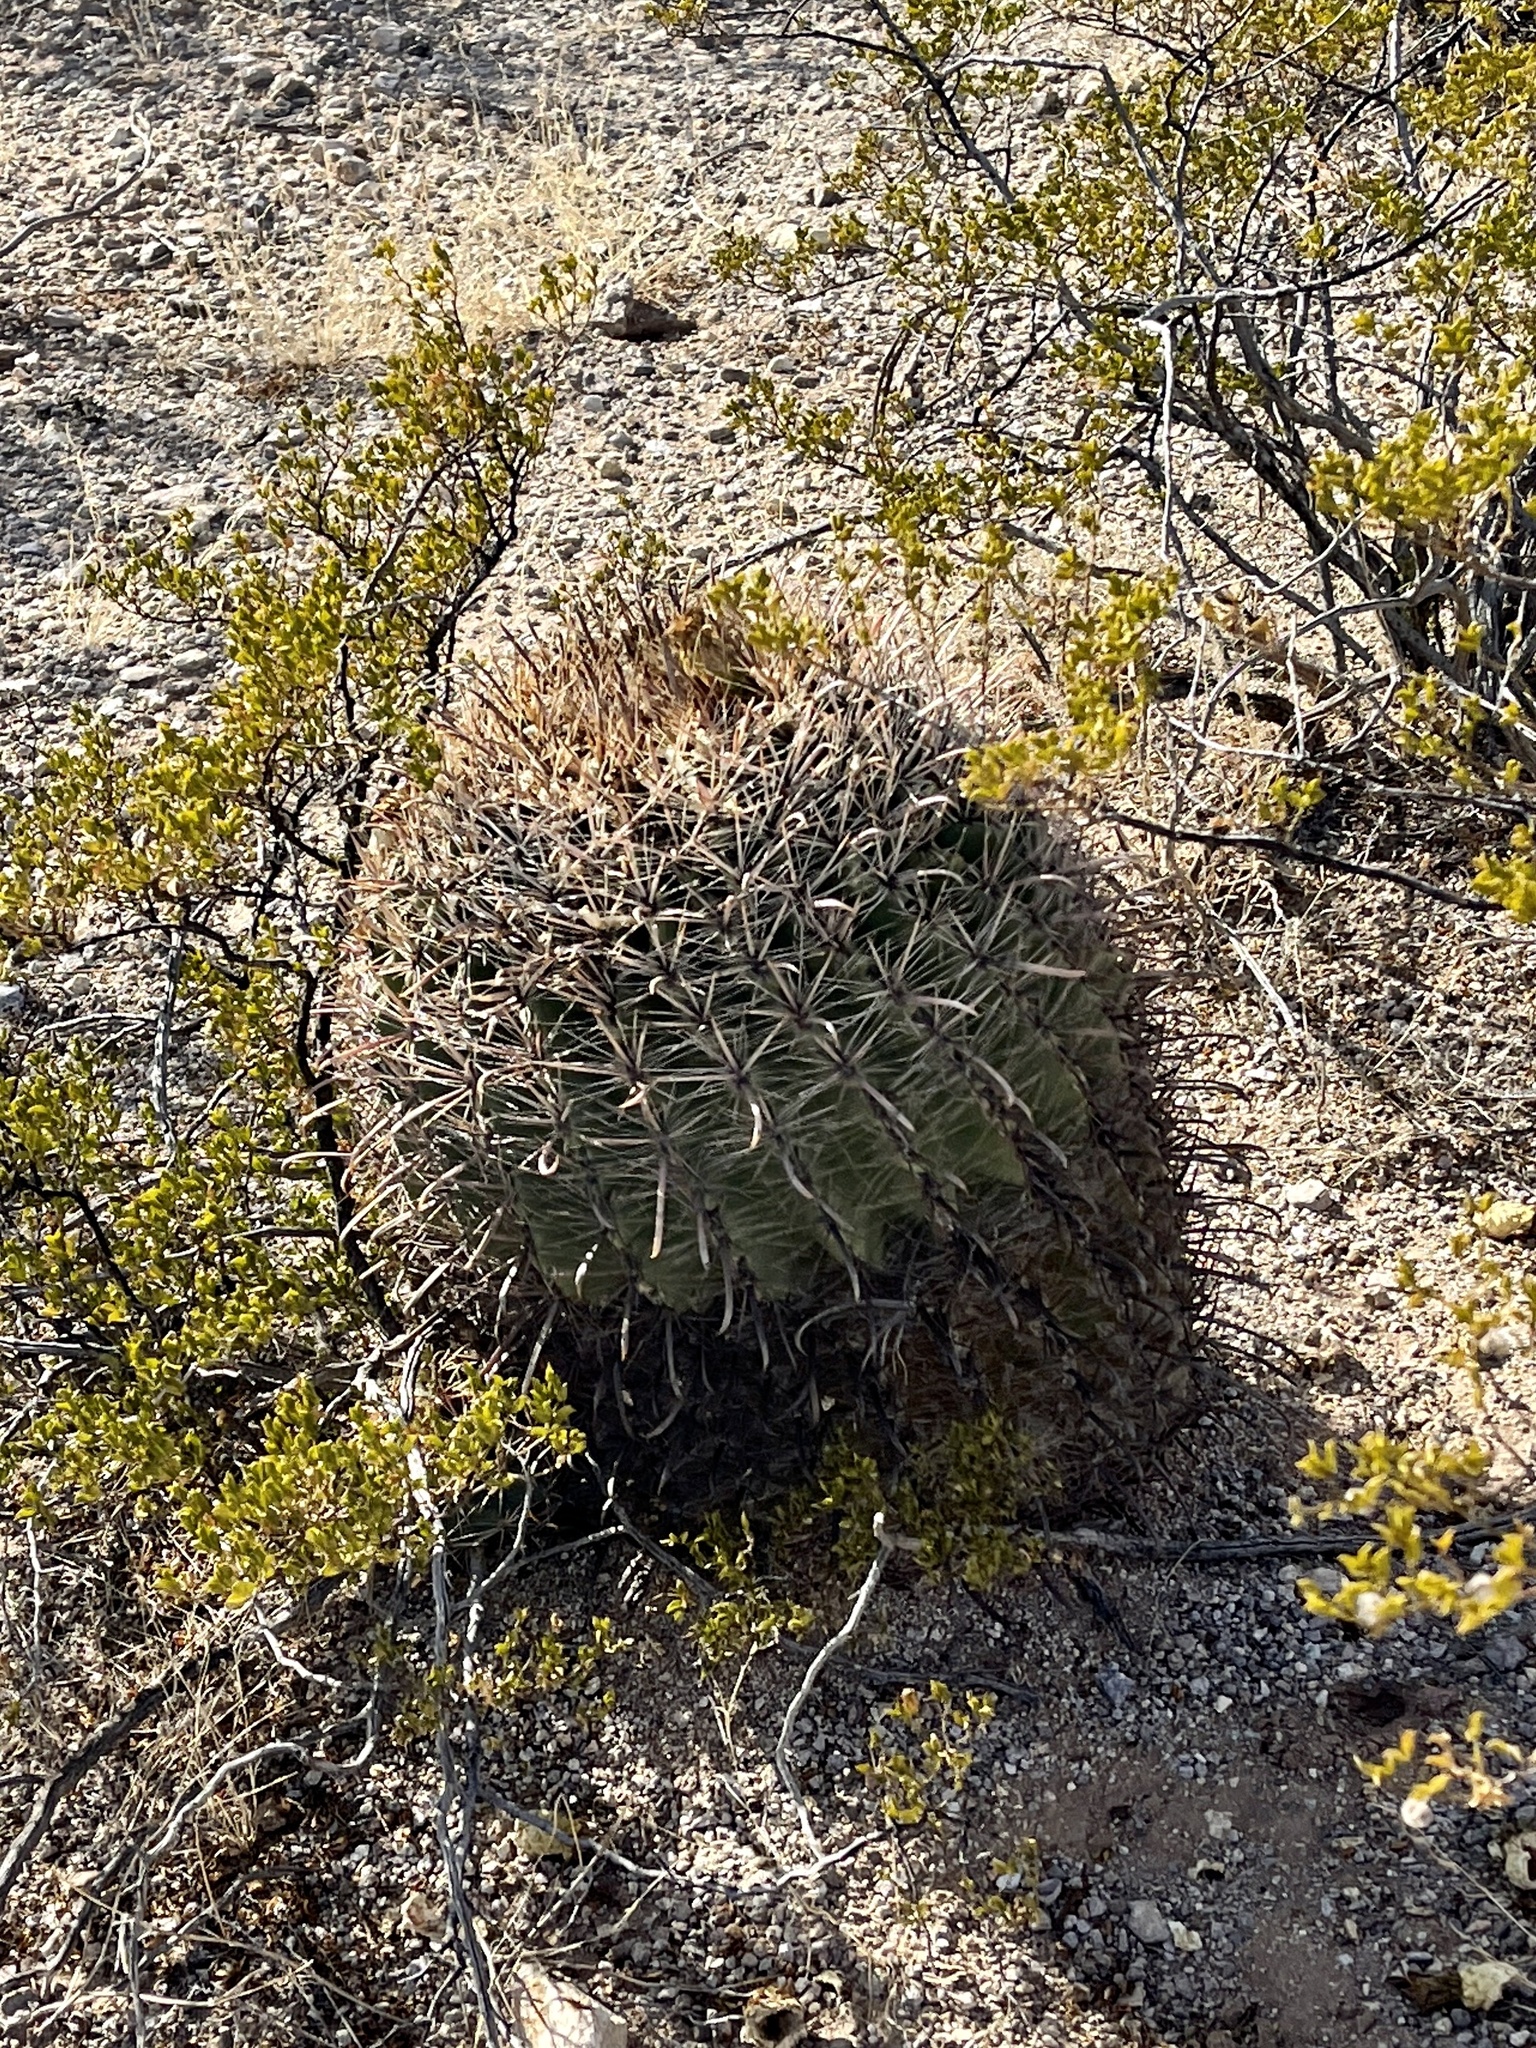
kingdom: Plantae
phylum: Tracheophyta
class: Magnoliopsida
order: Caryophyllales
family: Cactaceae
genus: Ferocactus
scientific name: Ferocactus wislizeni
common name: Candy barrel cactus
